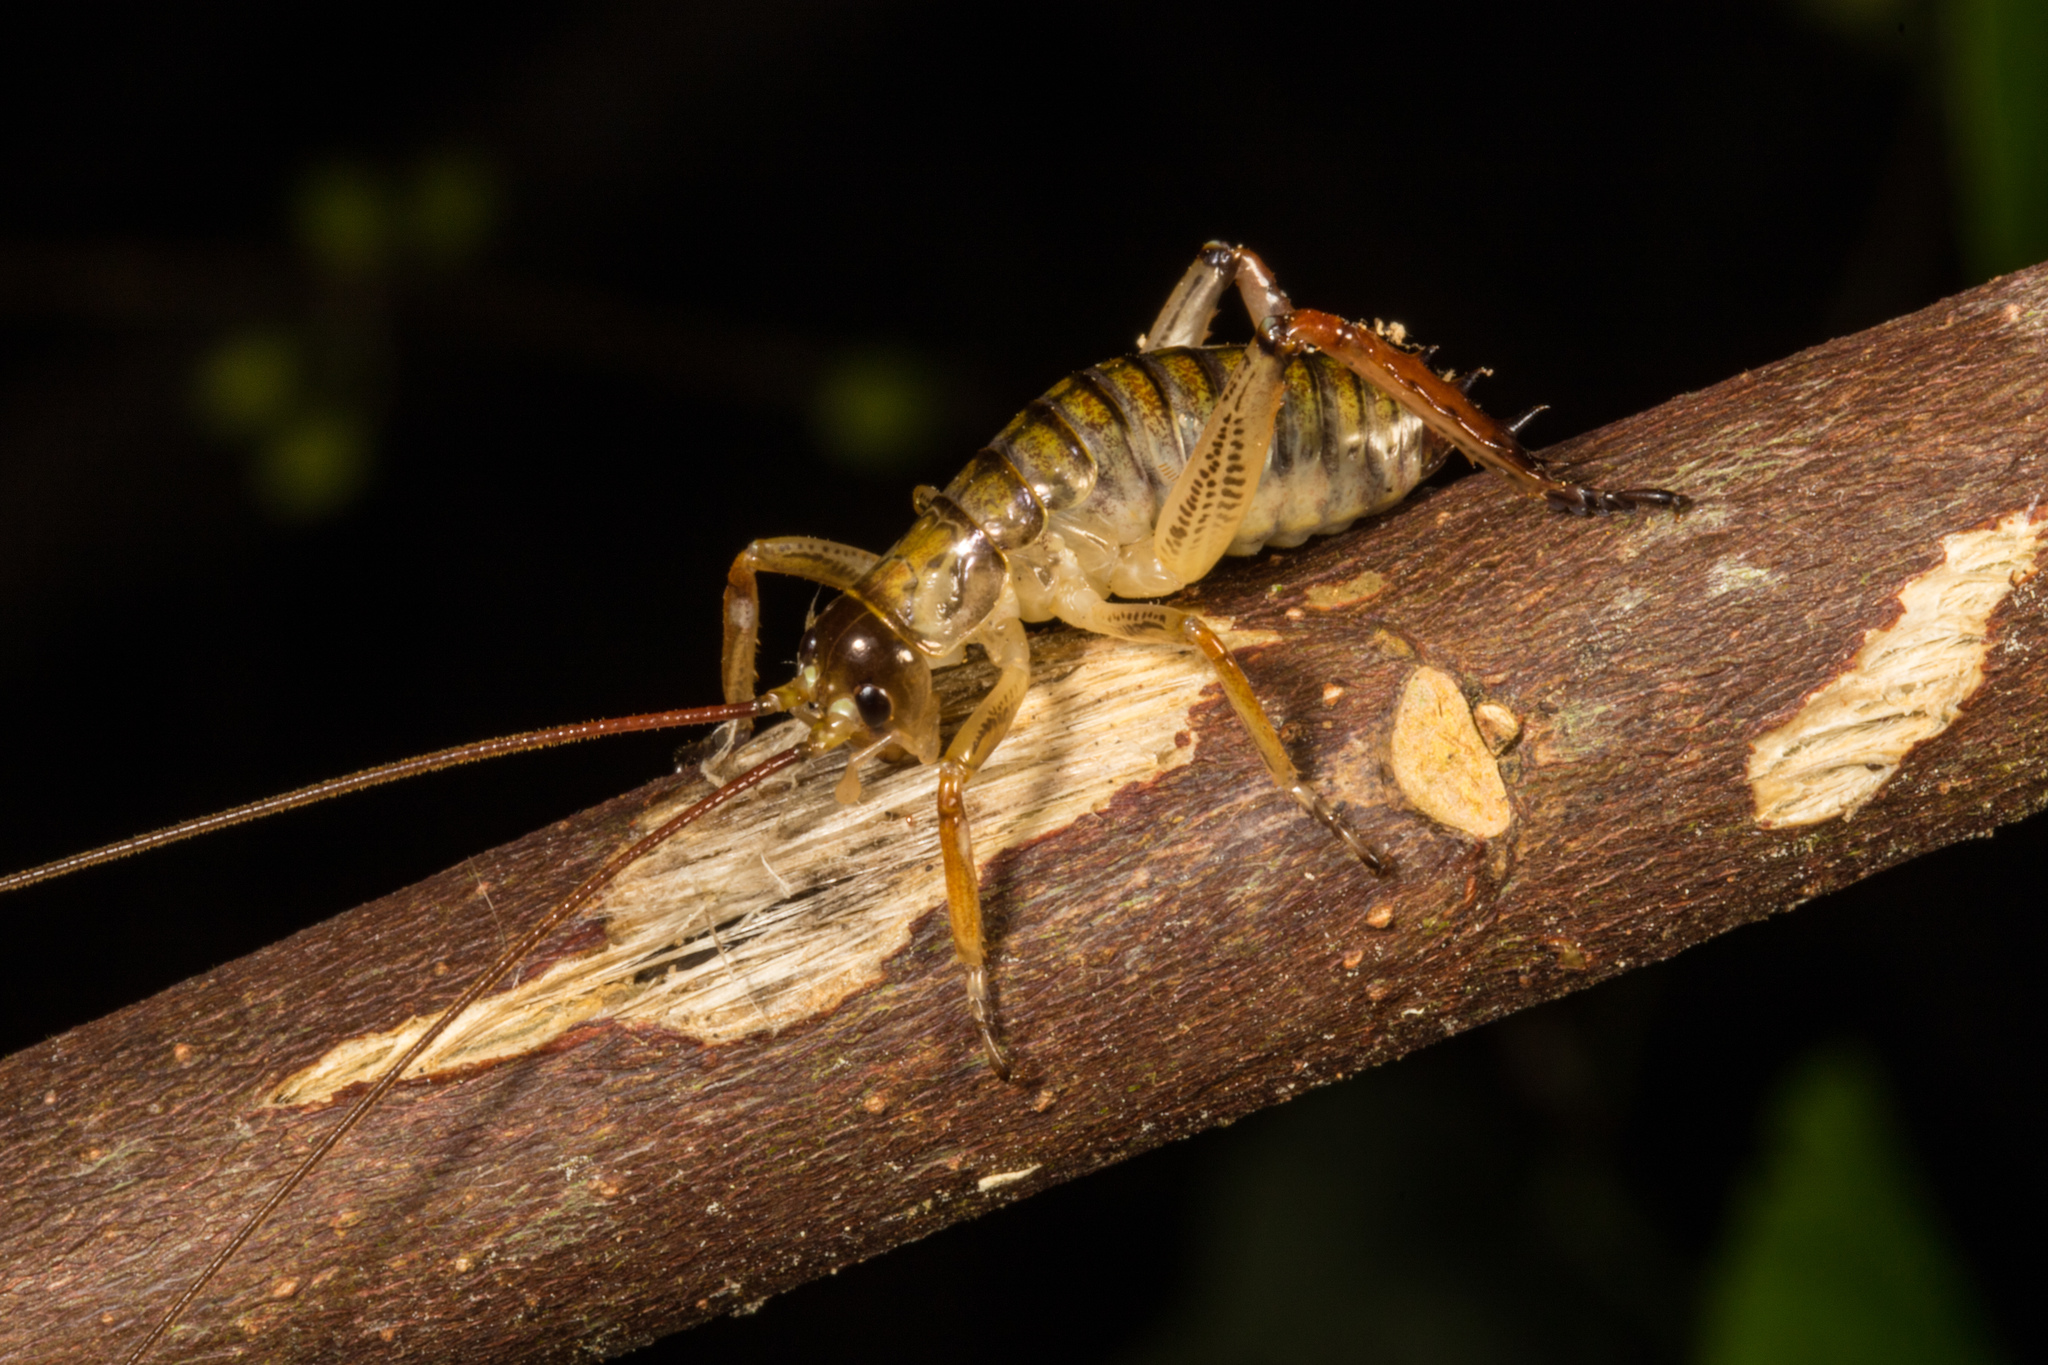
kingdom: Animalia
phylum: Arthropoda
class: Insecta
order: Orthoptera
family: Anostostomatidae
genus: Hemideina
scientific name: Hemideina thoracica
